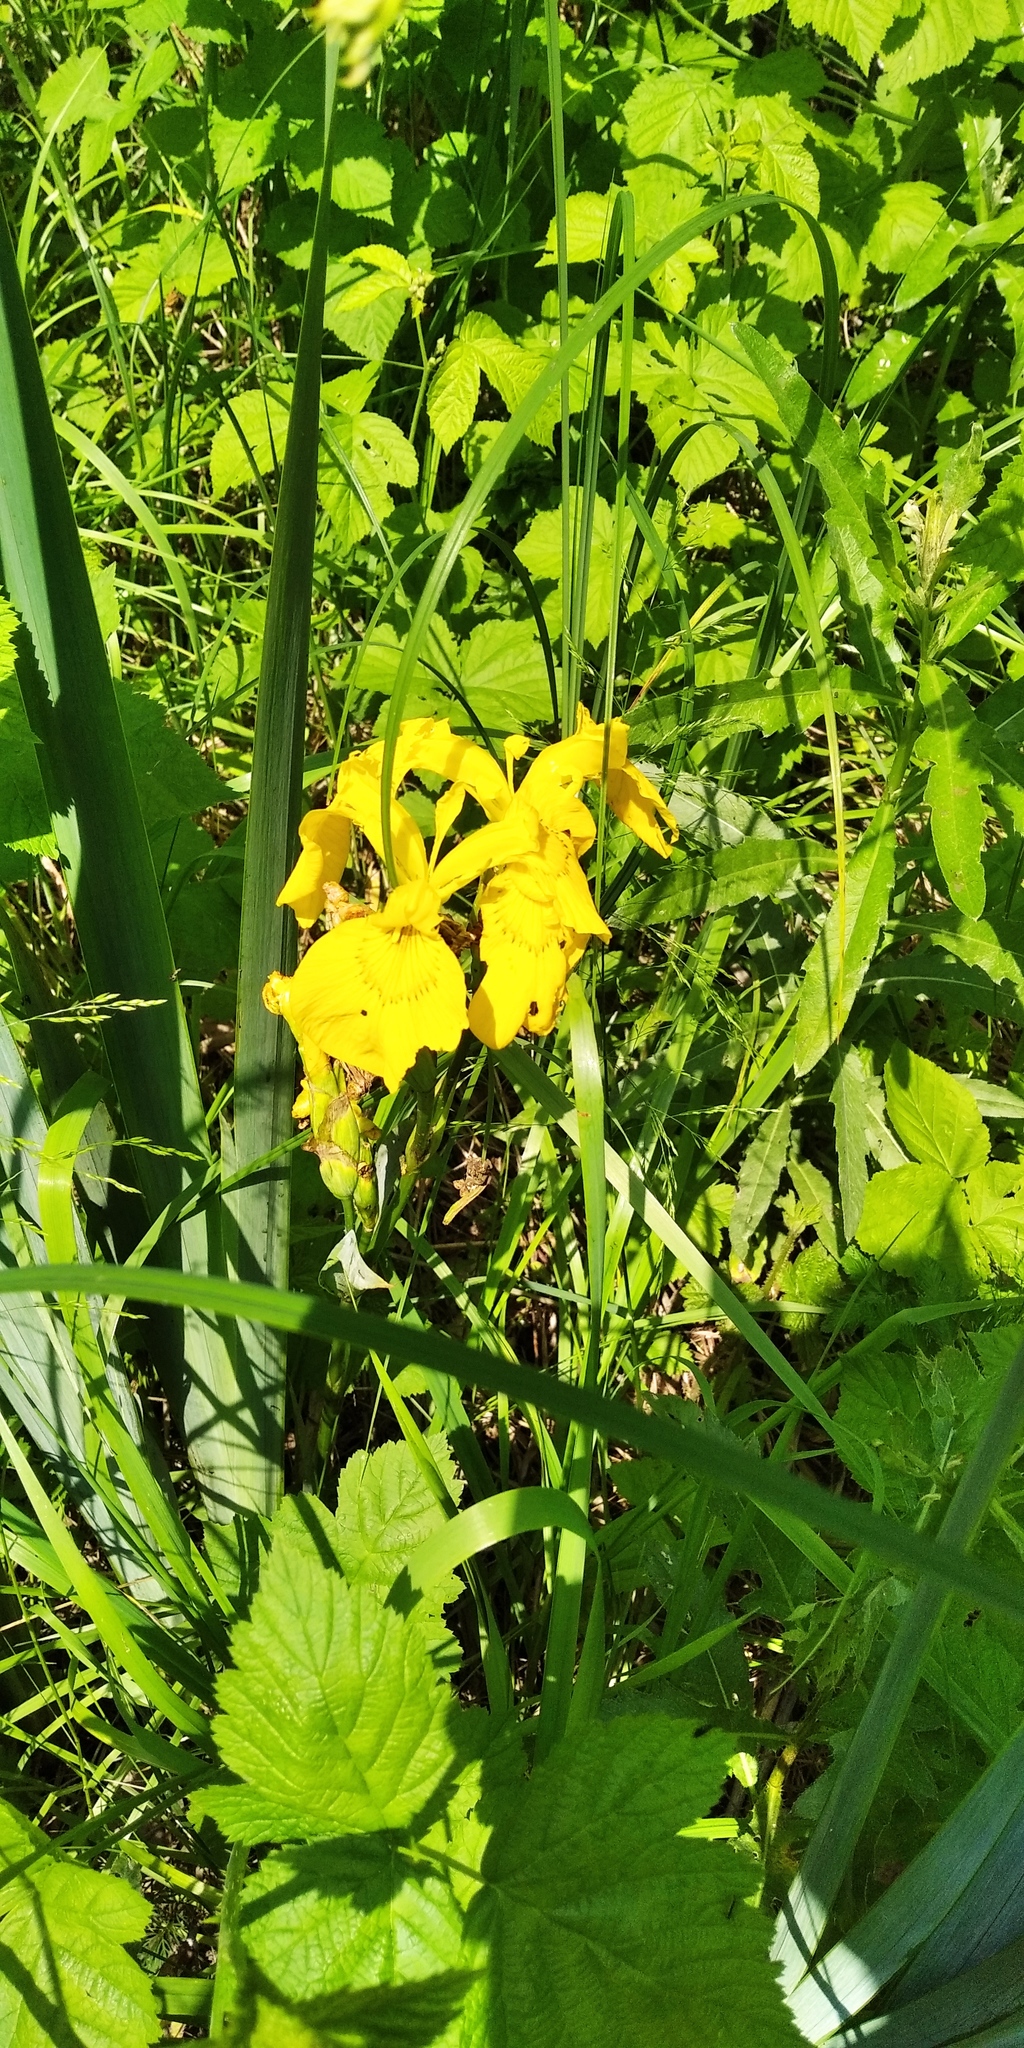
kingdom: Plantae
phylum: Tracheophyta
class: Liliopsida
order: Asparagales
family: Iridaceae
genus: Iris
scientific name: Iris pseudacorus
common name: Yellow flag
